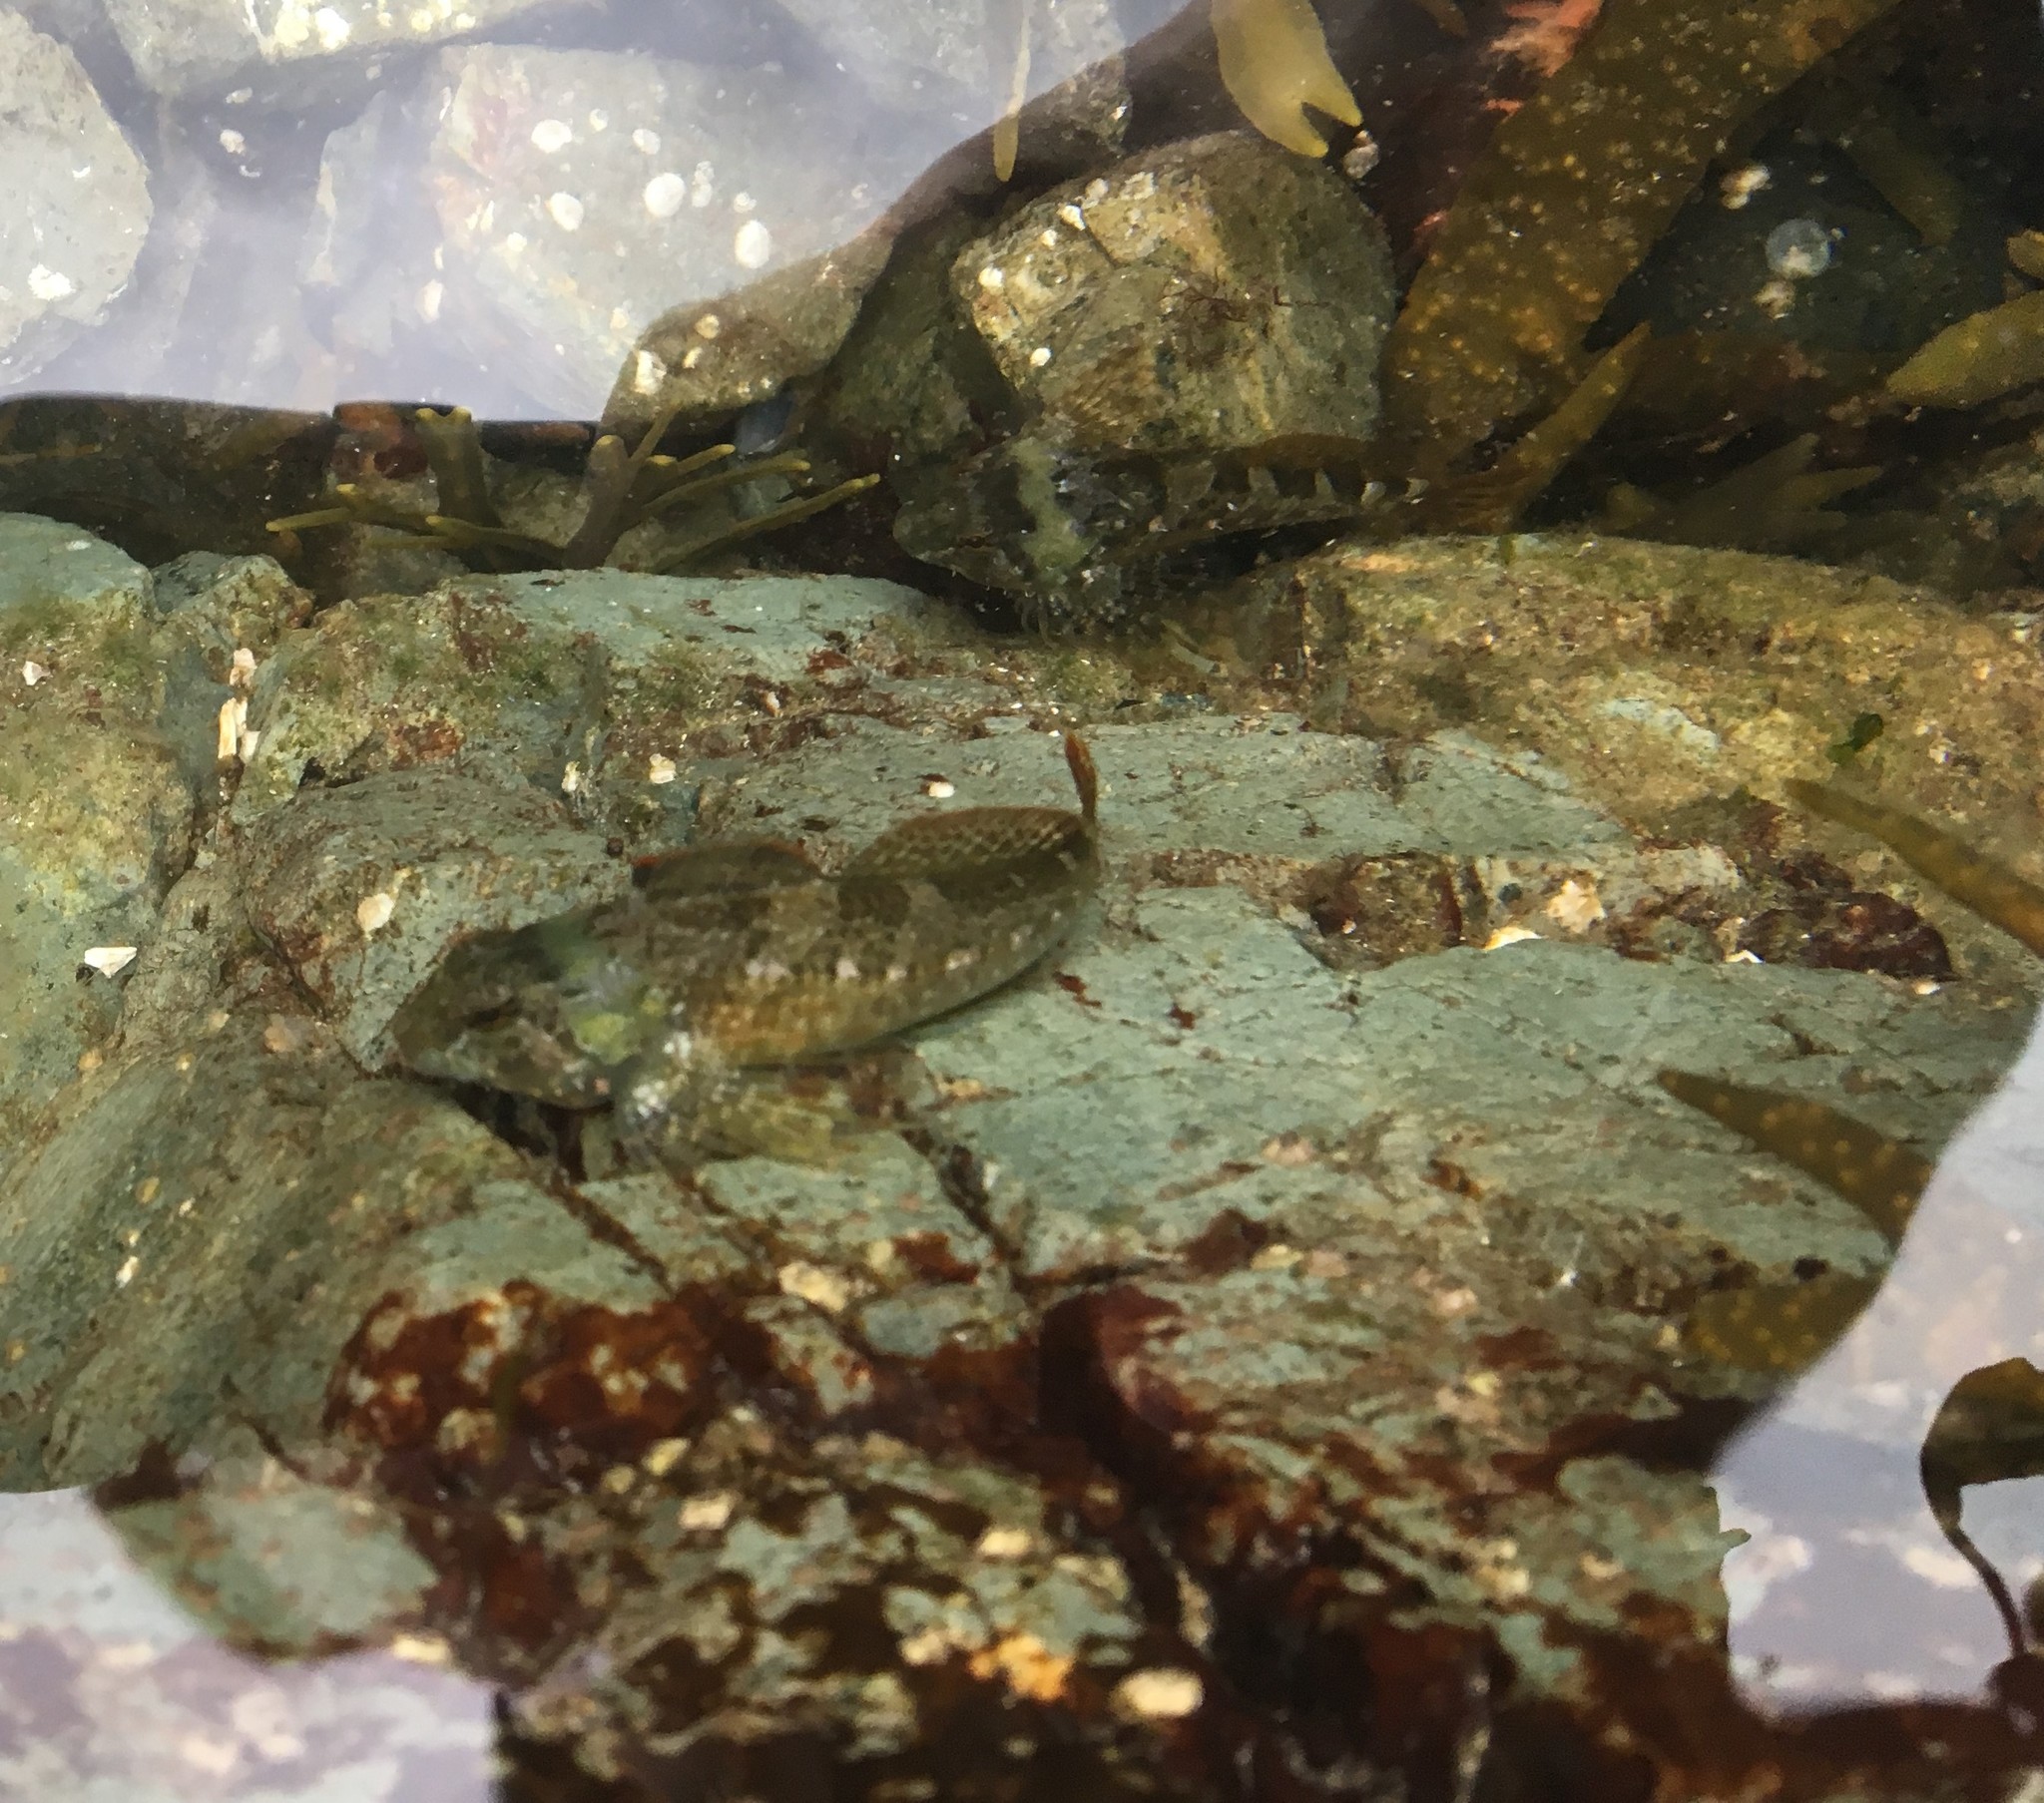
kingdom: Animalia
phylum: Chordata
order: Scorpaeniformes
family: Cottidae
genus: Oligocottus
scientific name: Oligocottus maculosus
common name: Tidepool sculpin
